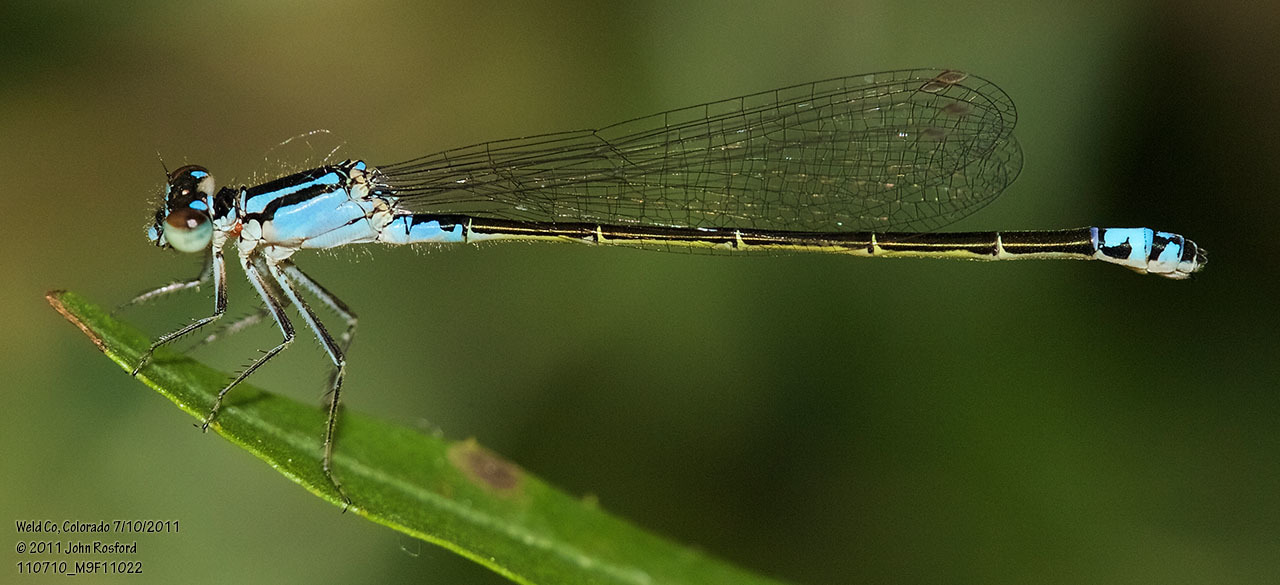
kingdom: Animalia
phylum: Arthropoda
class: Insecta
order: Odonata
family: Coenagrionidae
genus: Ischnura
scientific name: Ischnura damula
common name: Plains forktail
